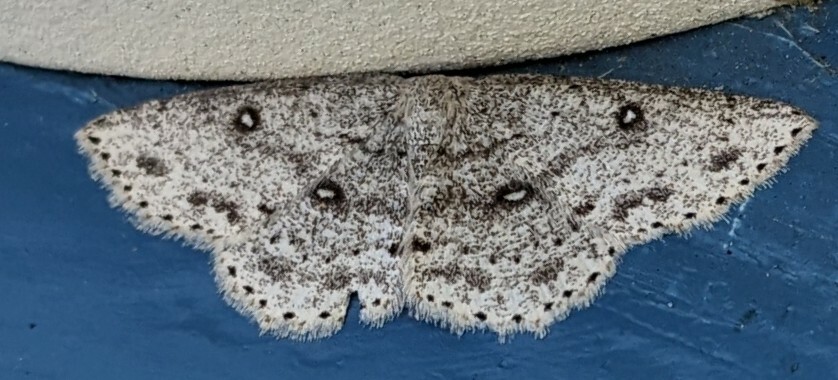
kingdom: Animalia
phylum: Arthropoda
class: Insecta
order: Lepidoptera
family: Geometridae
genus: Cyclophora
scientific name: Cyclophora pendulinaria
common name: Sweet fern geometer
